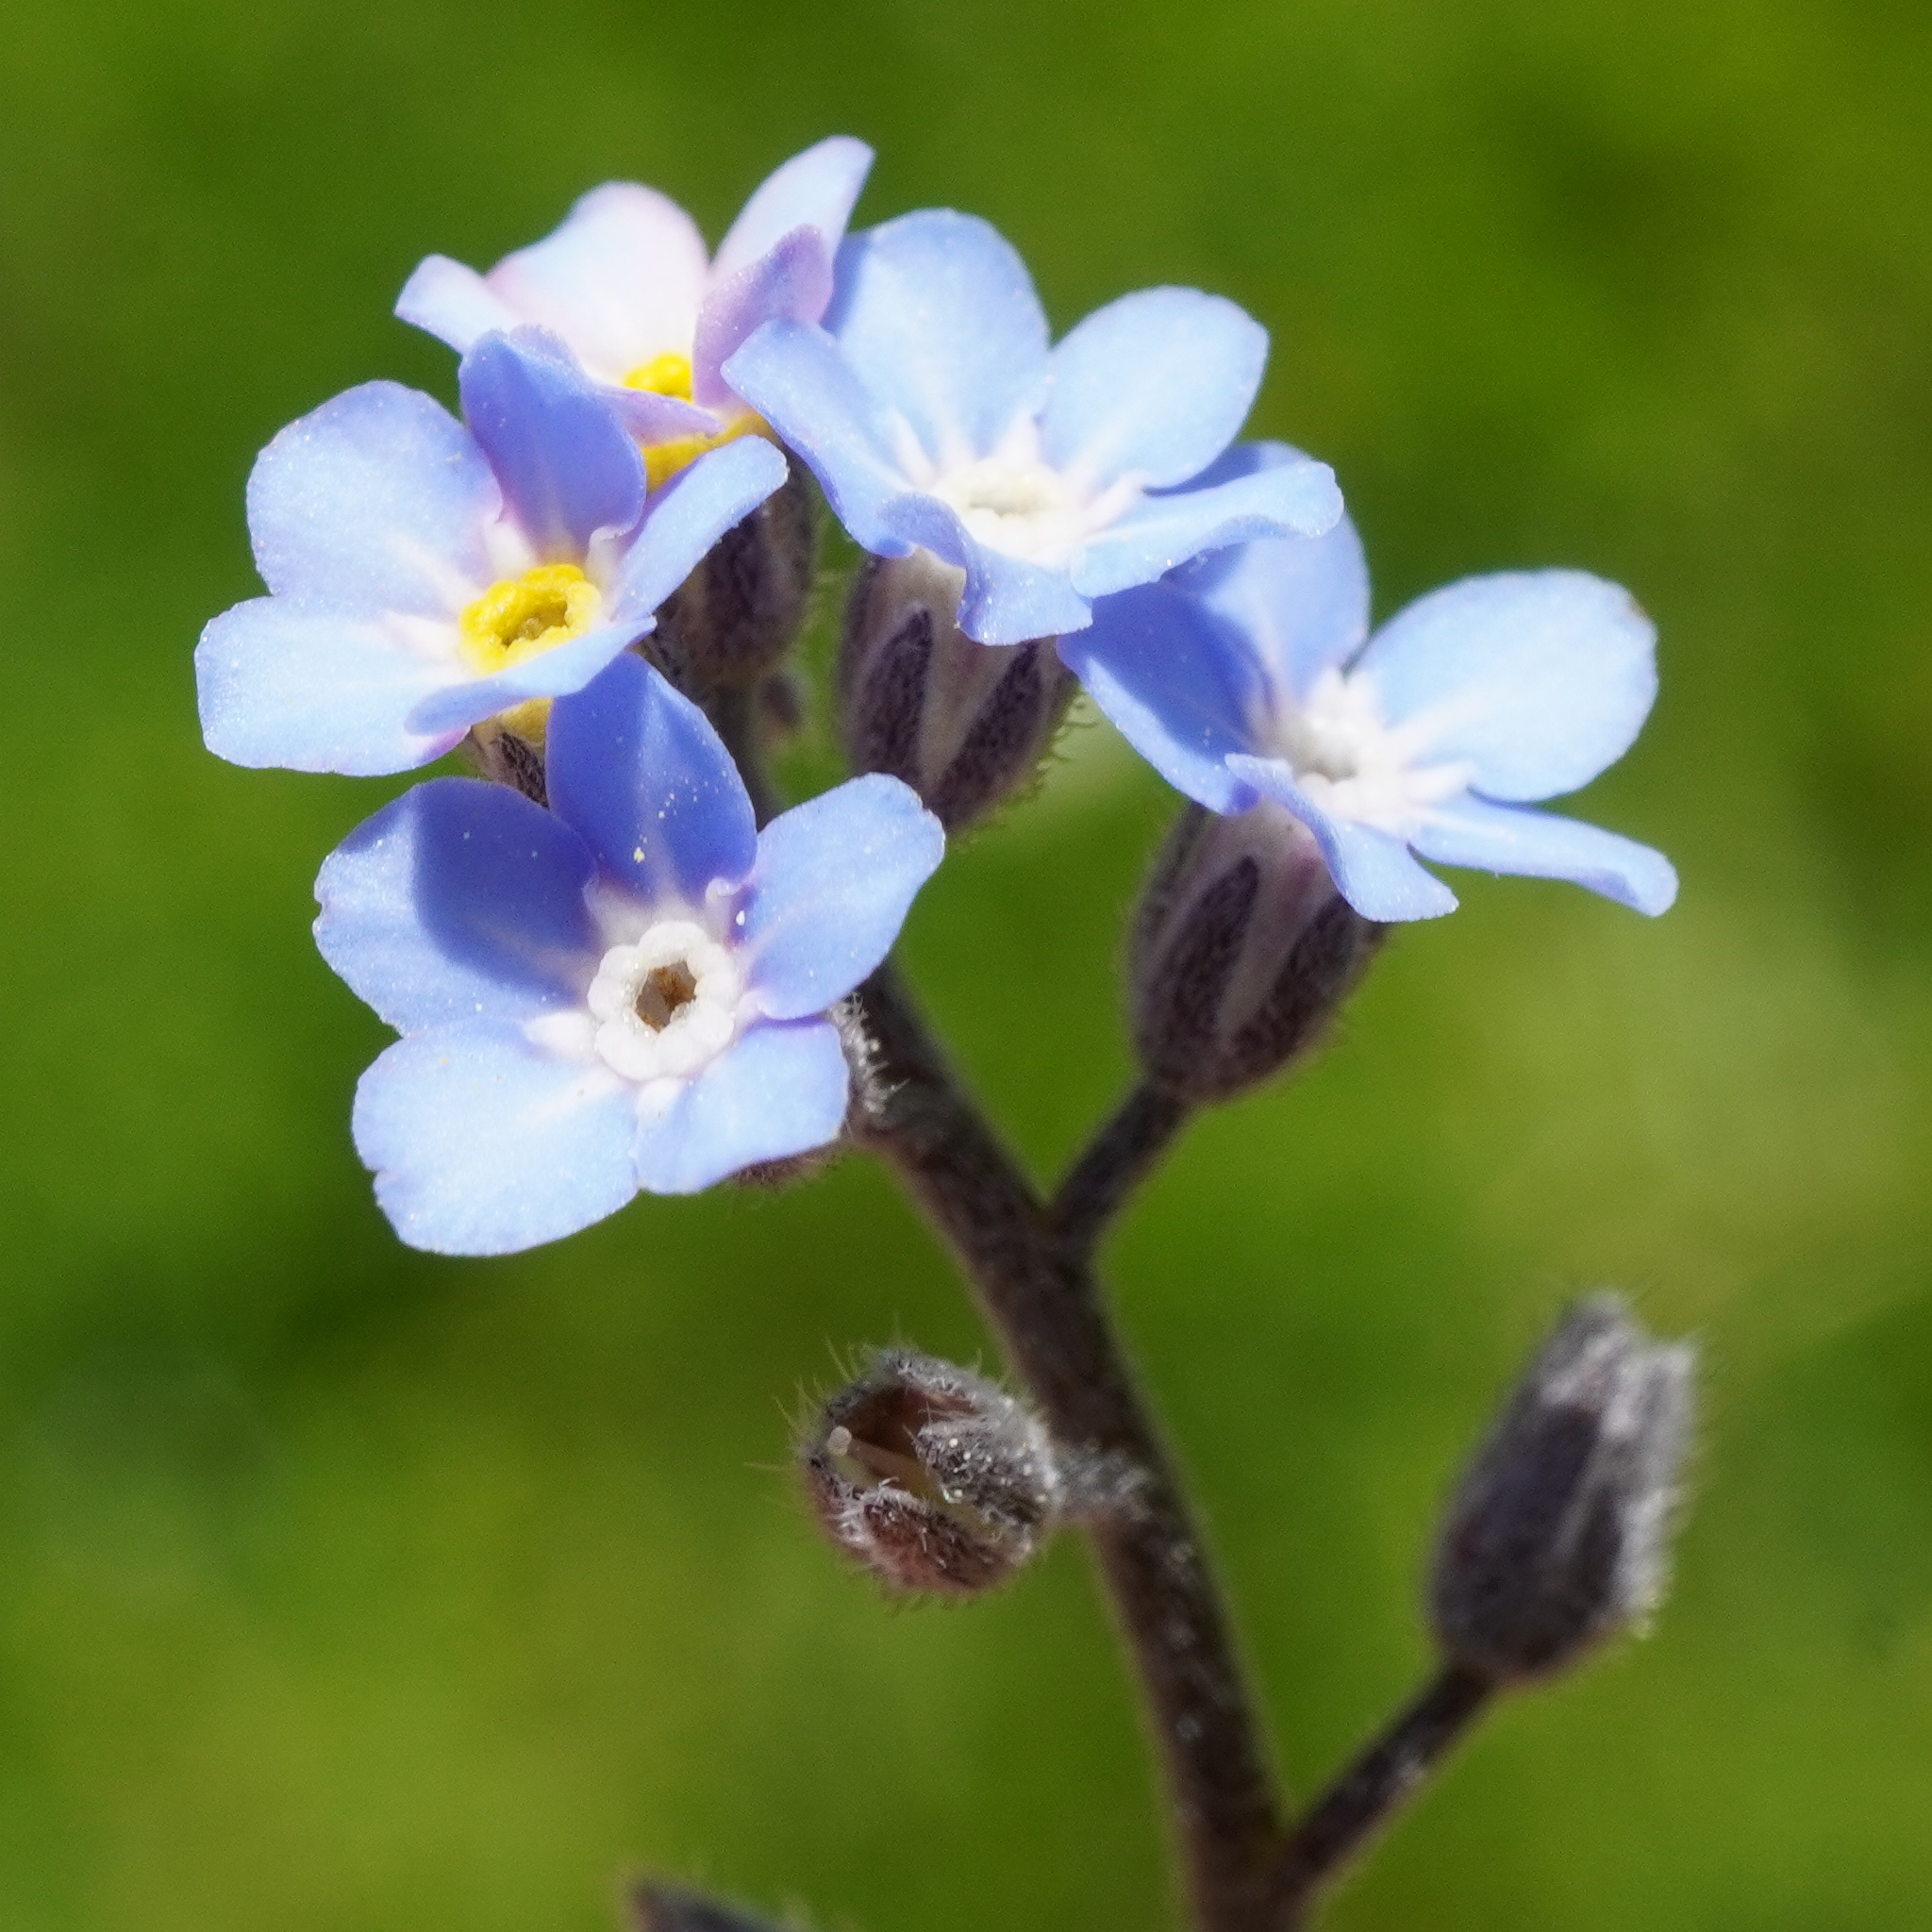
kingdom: Plantae
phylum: Tracheophyta
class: Magnoliopsida
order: Boraginales
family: Boraginaceae
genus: Myosotis
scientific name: Myosotis decumbens
